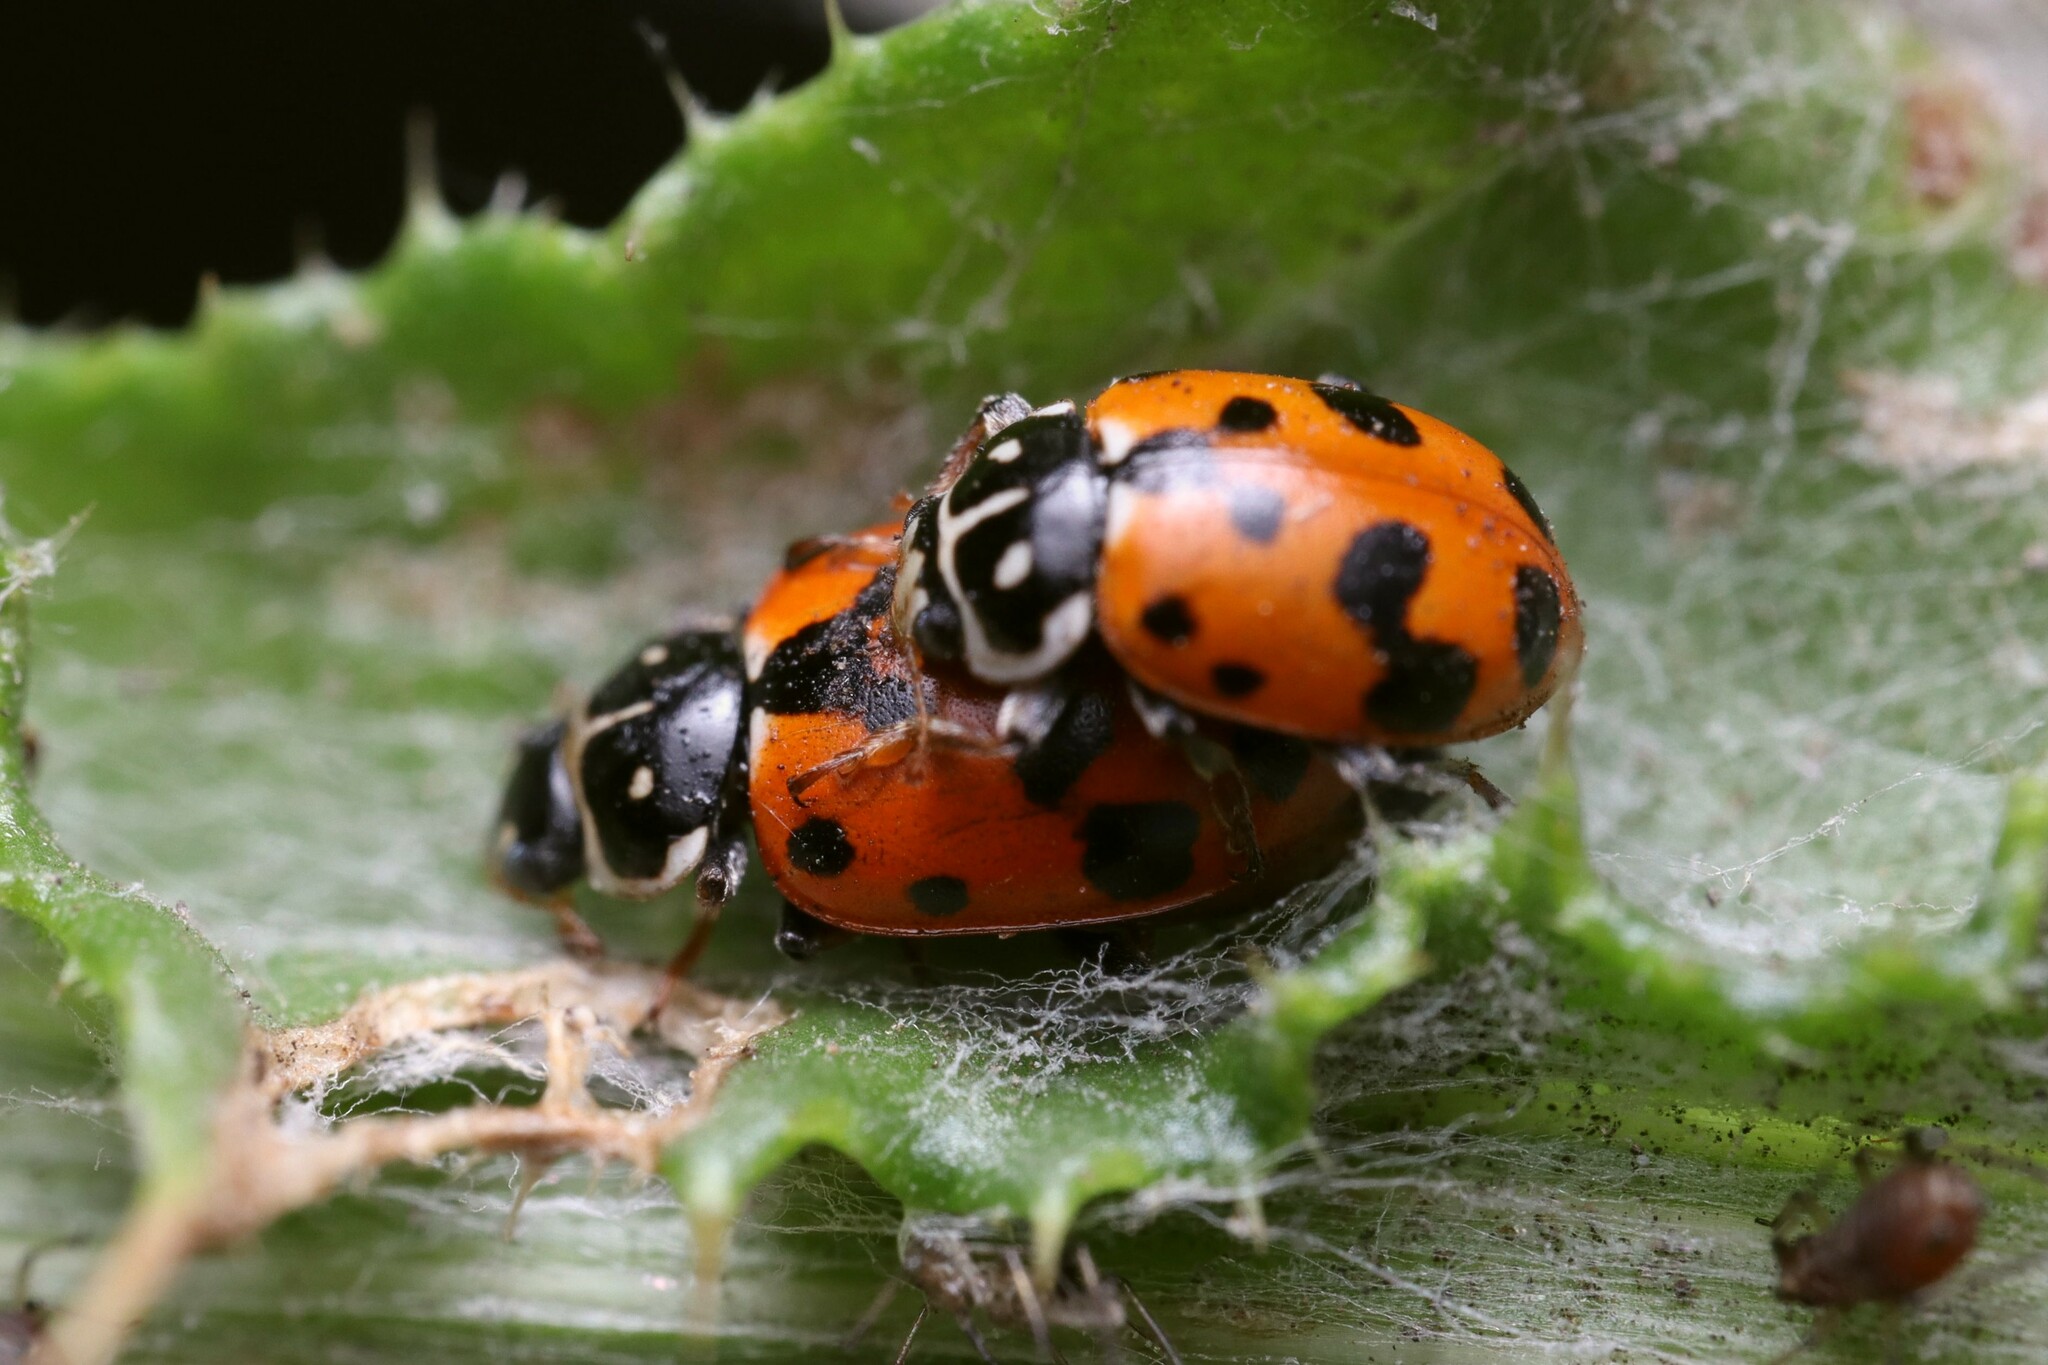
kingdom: Animalia
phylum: Arthropoda
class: Insecta
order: Coleoptera
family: Coccinellidae
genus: Hippodamia
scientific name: Hippodamia variegata
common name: Ladybird beetle
